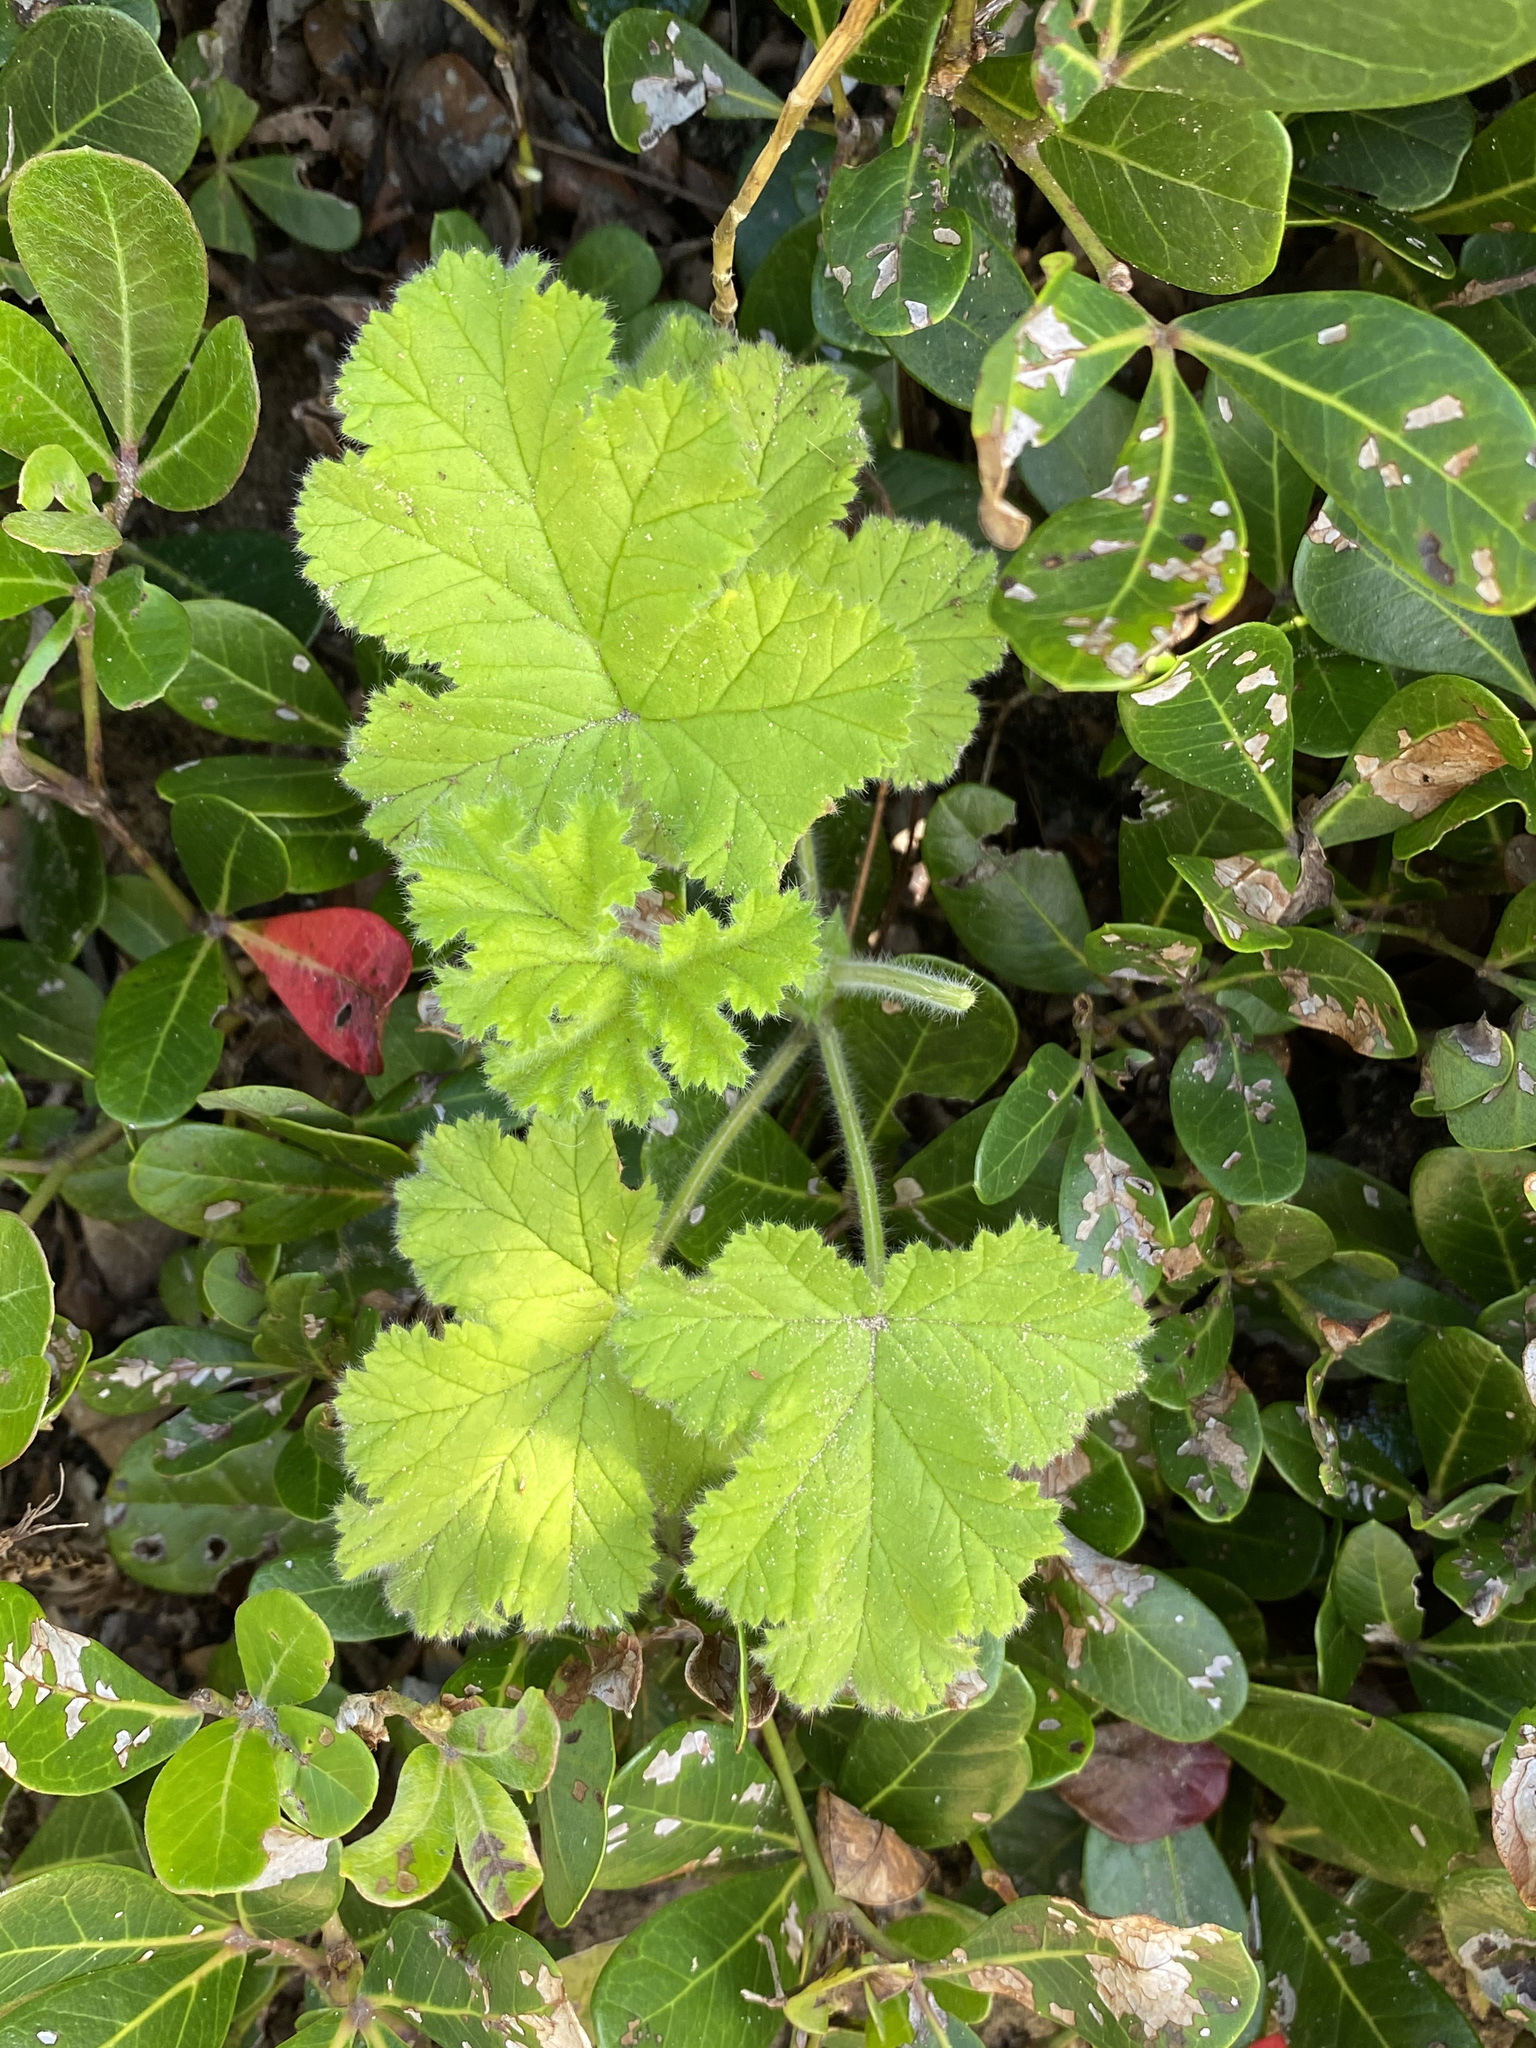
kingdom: Plantae
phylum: Tracheophyta
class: Magnoliopsida
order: Geraniales
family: Geraniaceae
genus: Pelargonium
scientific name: Pelargonium capitatum
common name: Rose scented geranium
